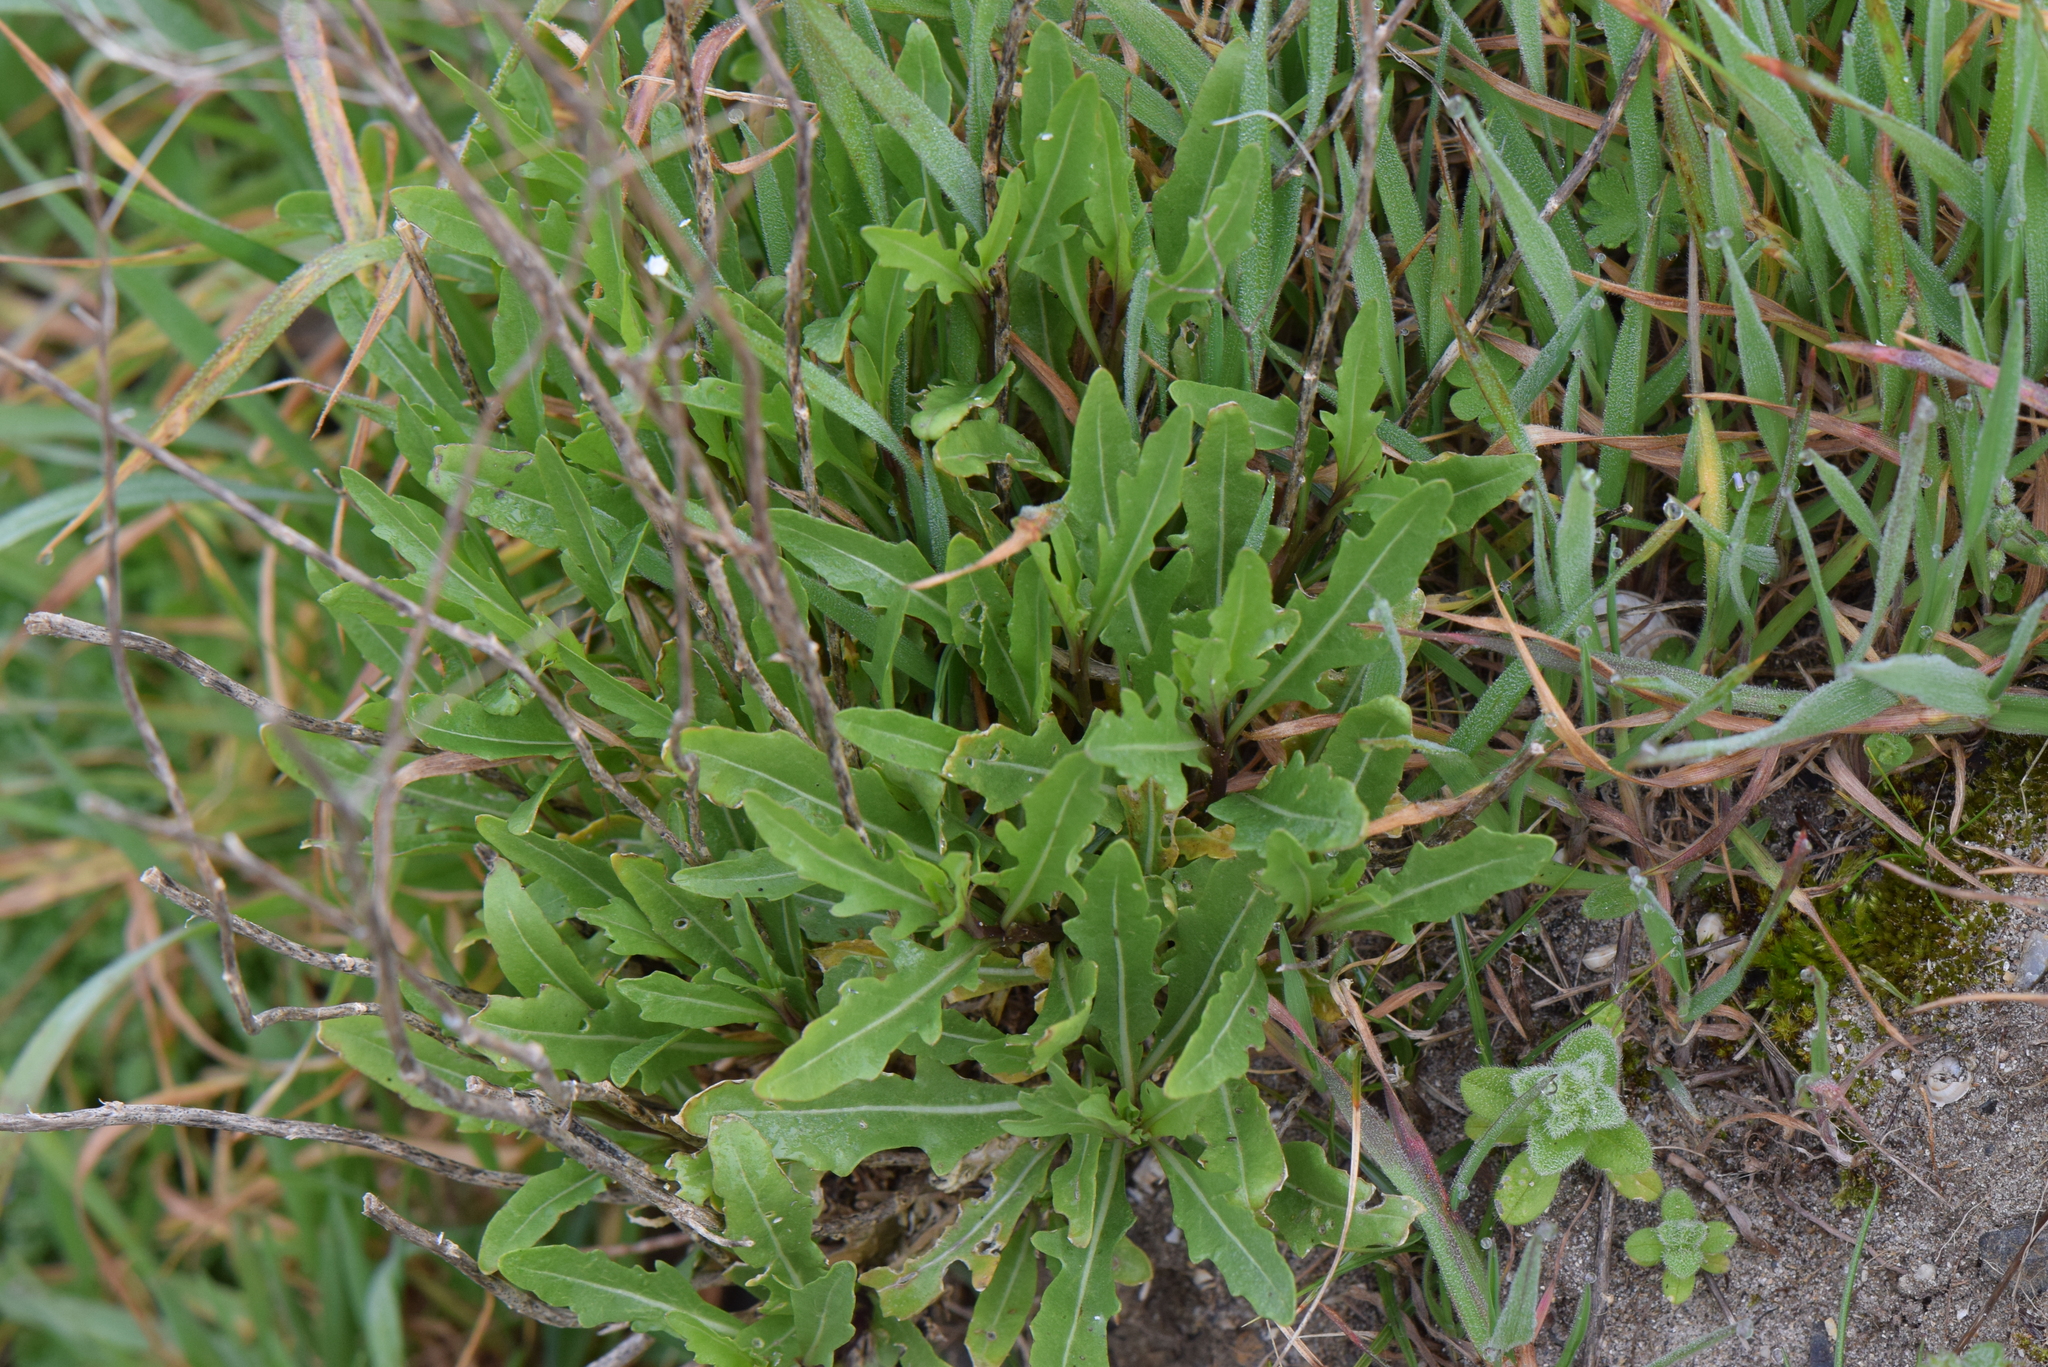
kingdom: Plantae
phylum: Tracheophyta
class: Magnoliopsida
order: Brassicales
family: Brassicaceae
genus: Diplotaxis
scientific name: Diplotaxis tenuifolia
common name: Perennial wall-rocket
